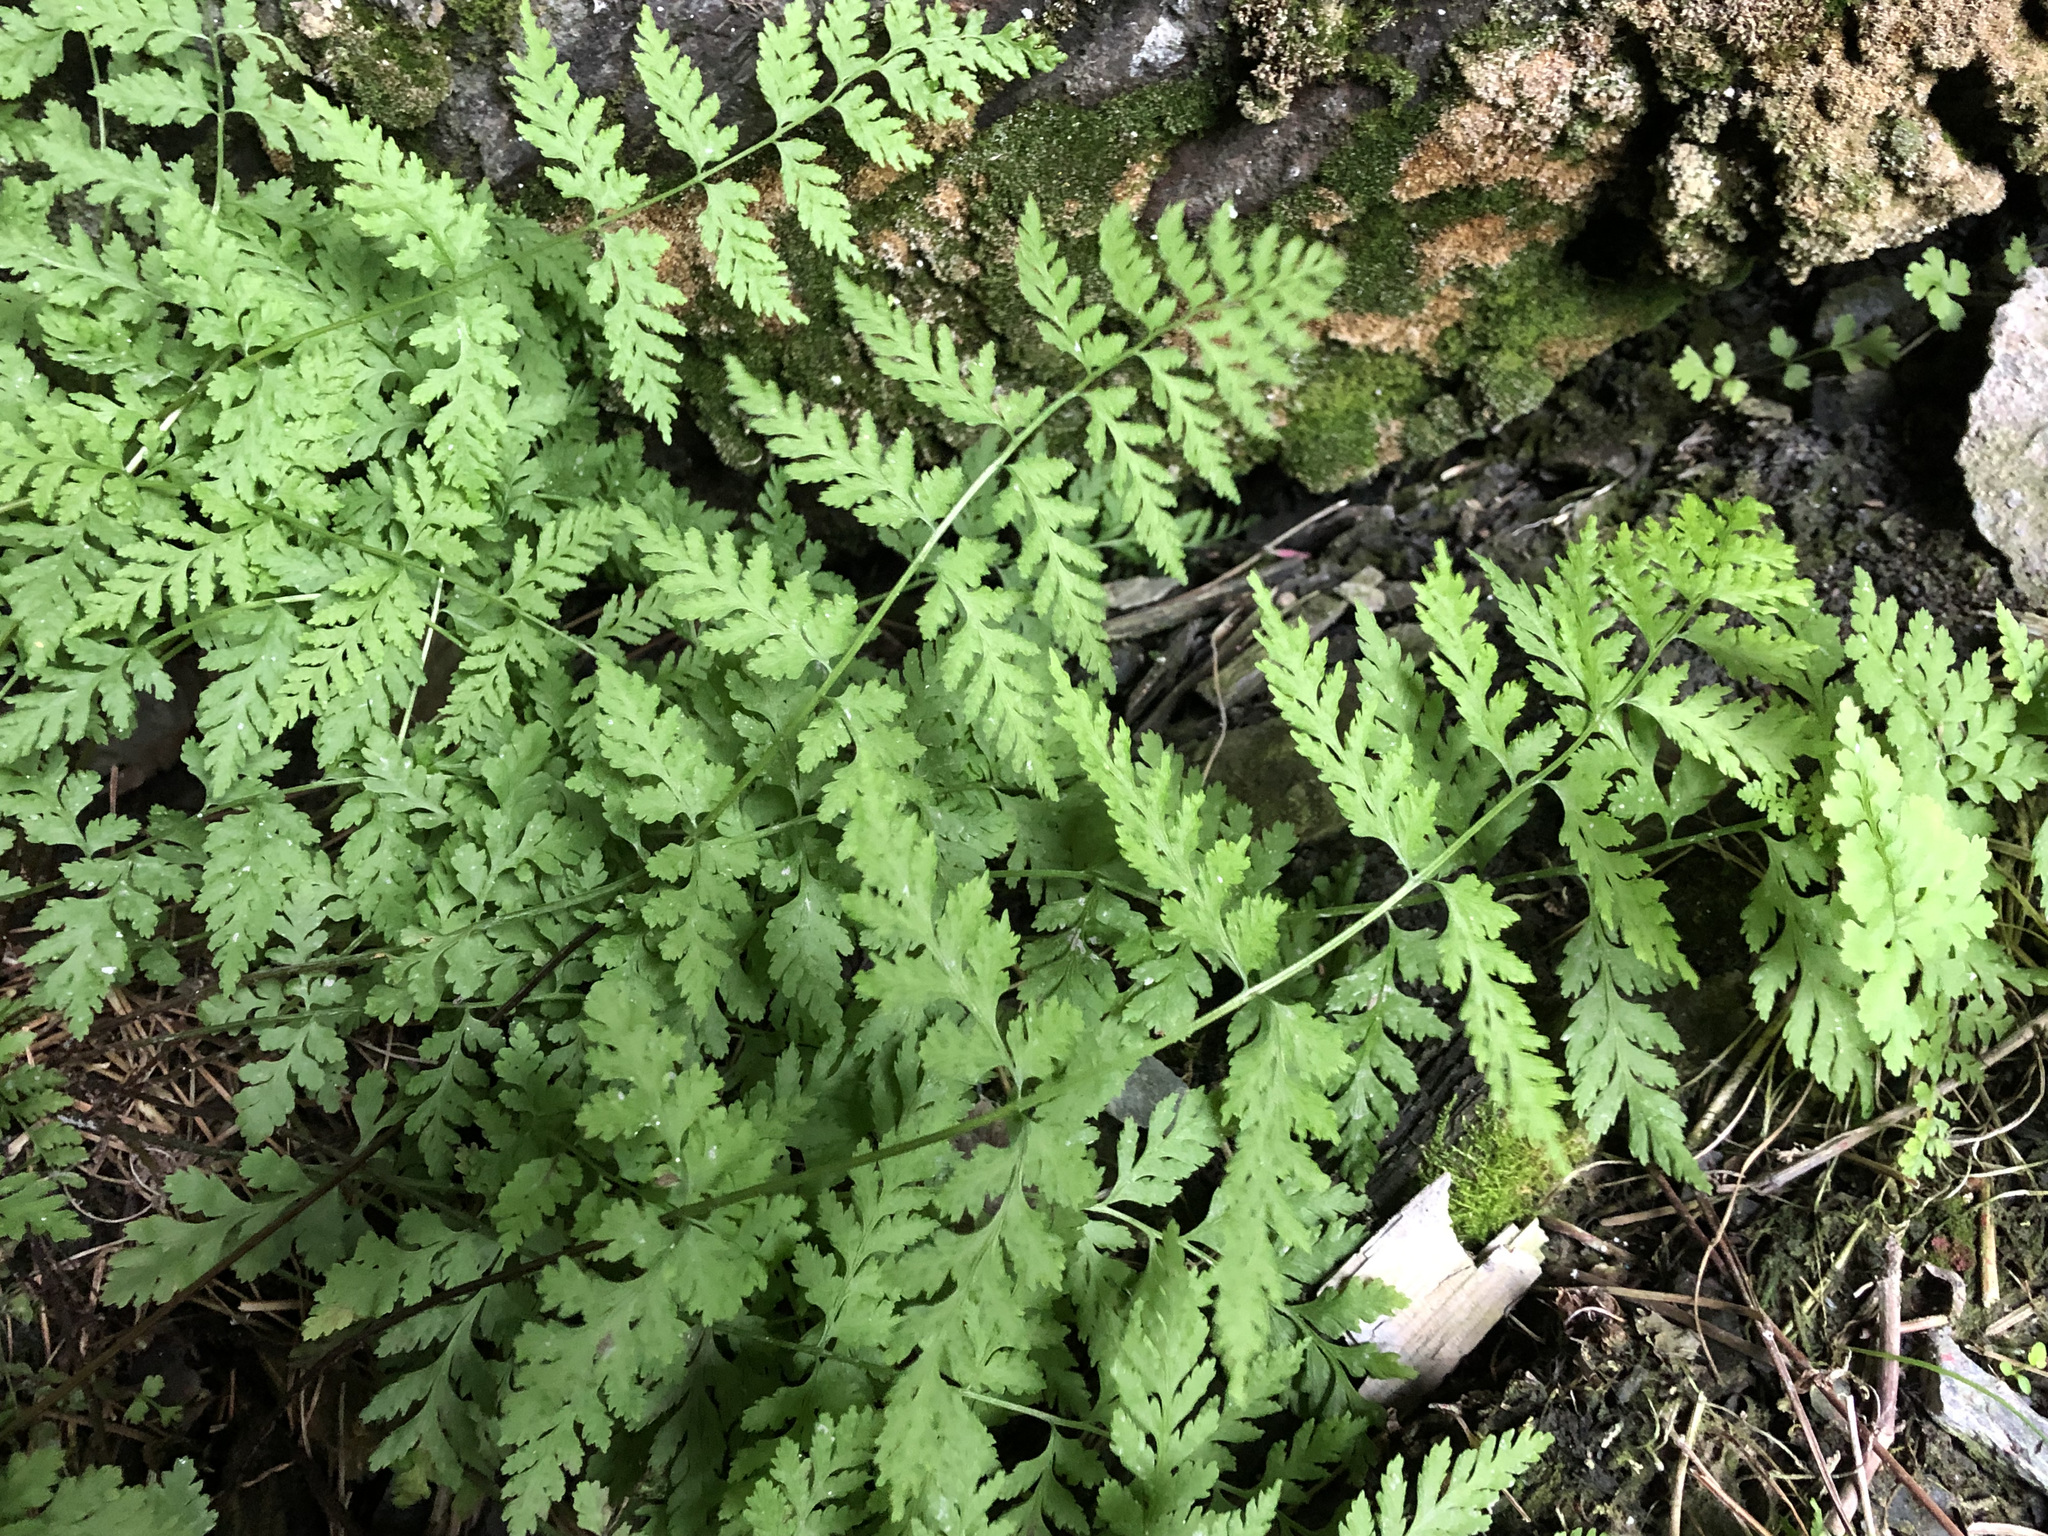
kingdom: Plantae
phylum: Tracheophyta
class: Polypodiopsida
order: Polypodiales
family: Cystopteridaceae
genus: Cystopteris
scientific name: Cystopteris fragilis
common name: Brittle bladder fern
